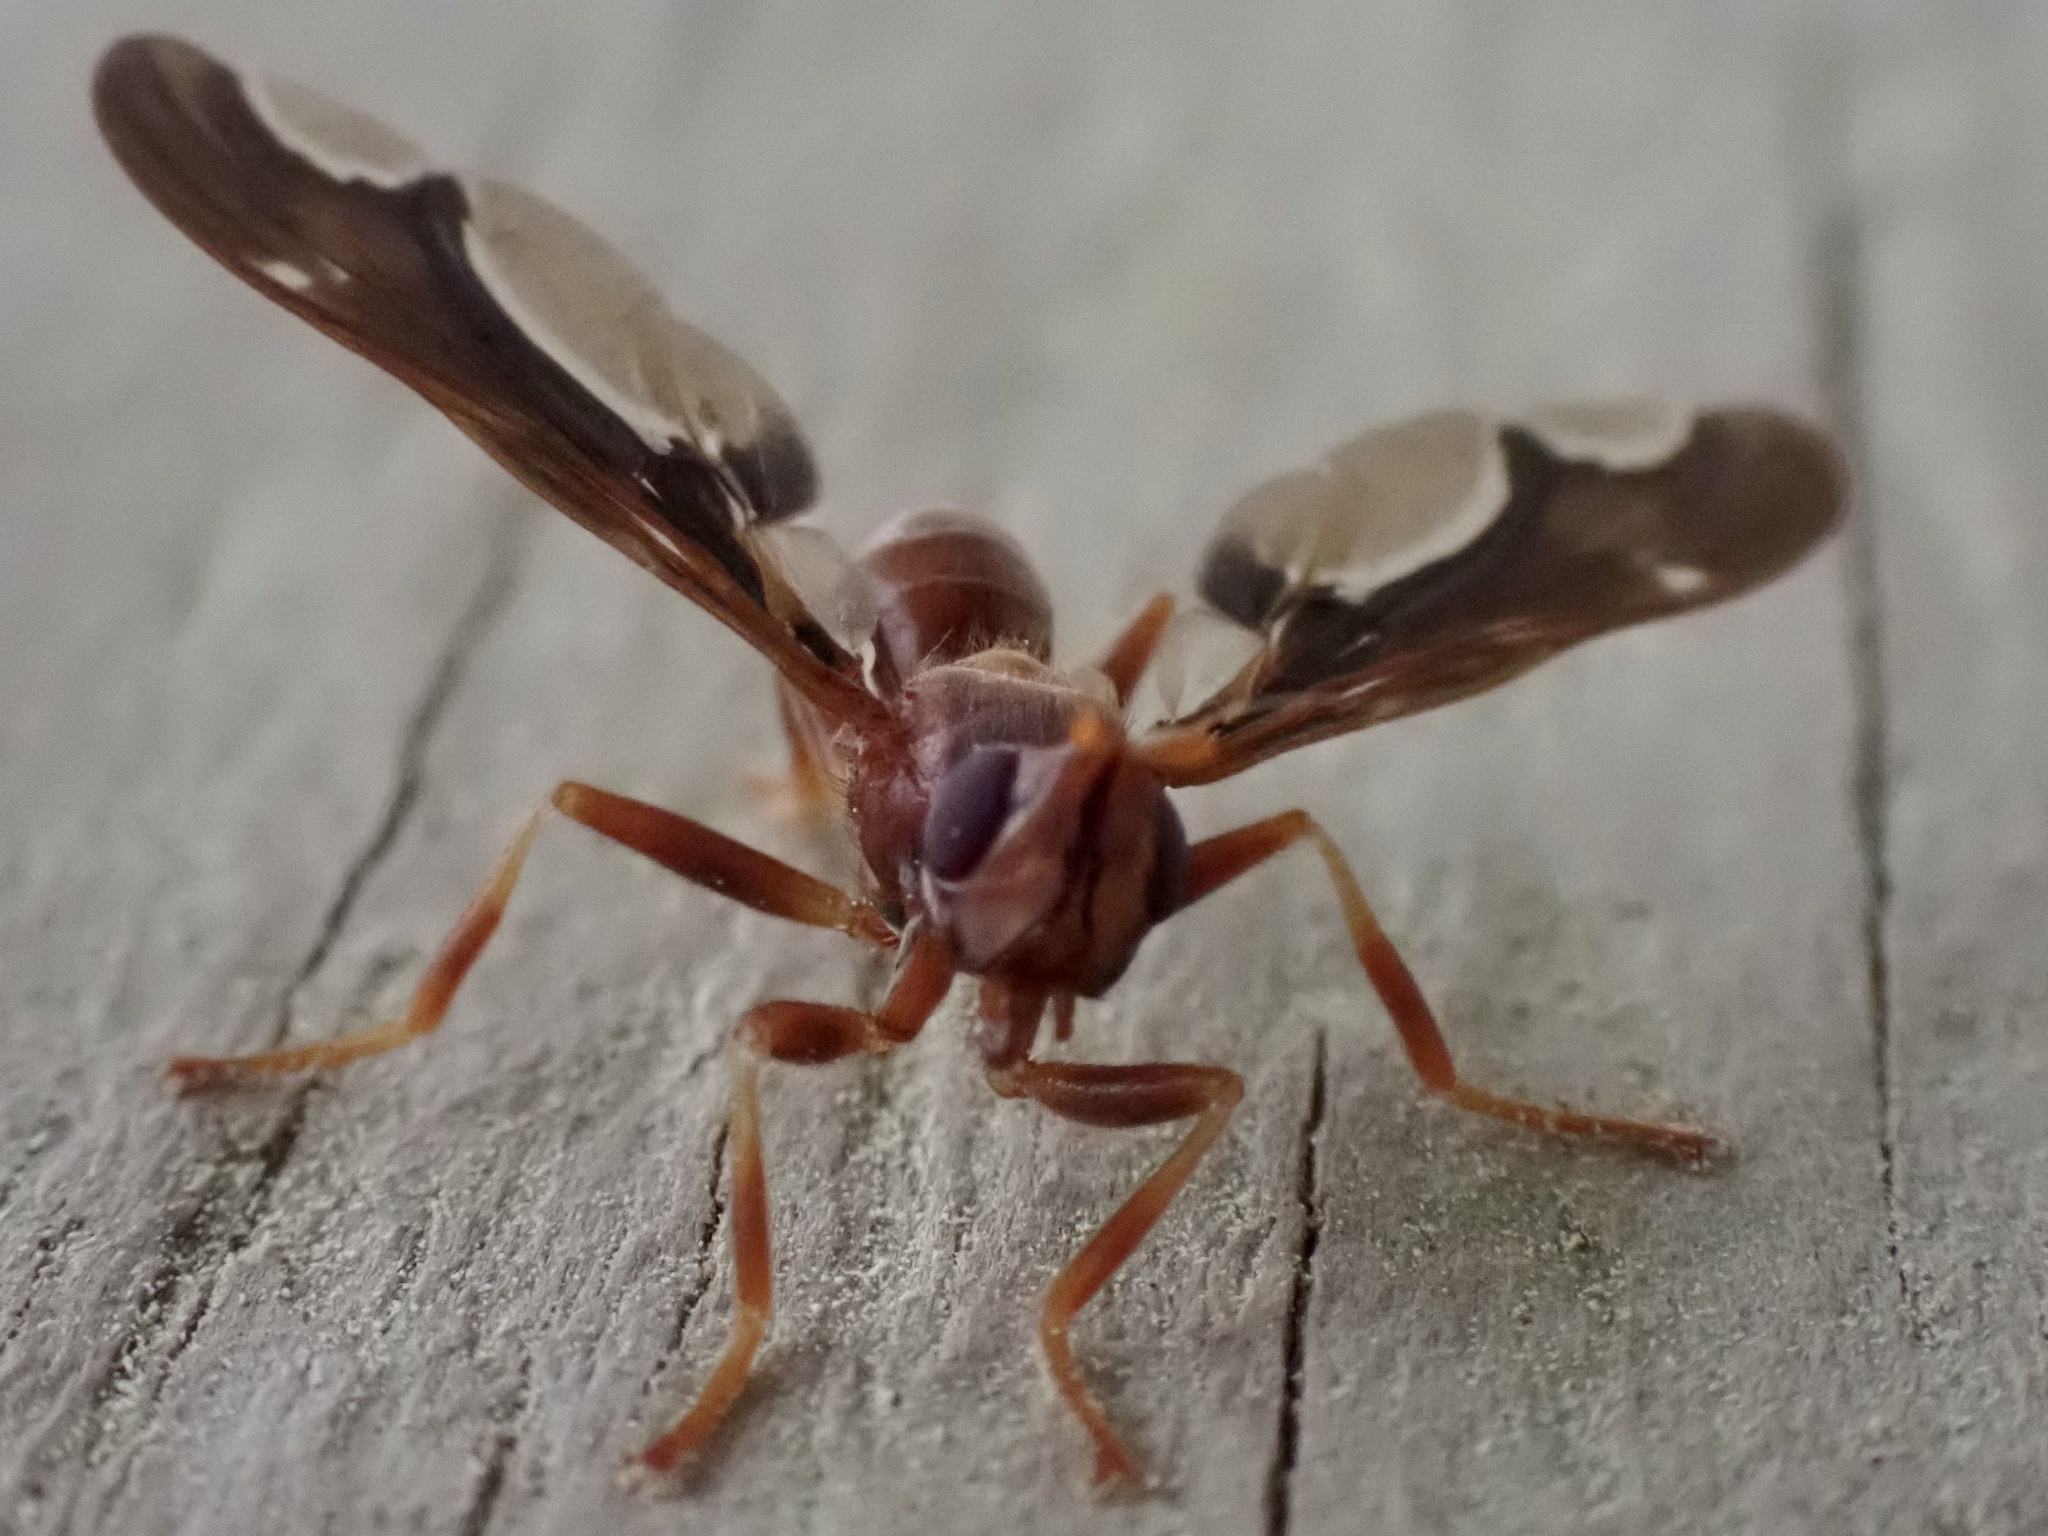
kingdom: Animalia
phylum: Arthropoda
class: Insecta
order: Diptera
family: Pyrgotidae
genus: Pyrgota
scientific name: Pyrgota undata
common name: Waved light fly
